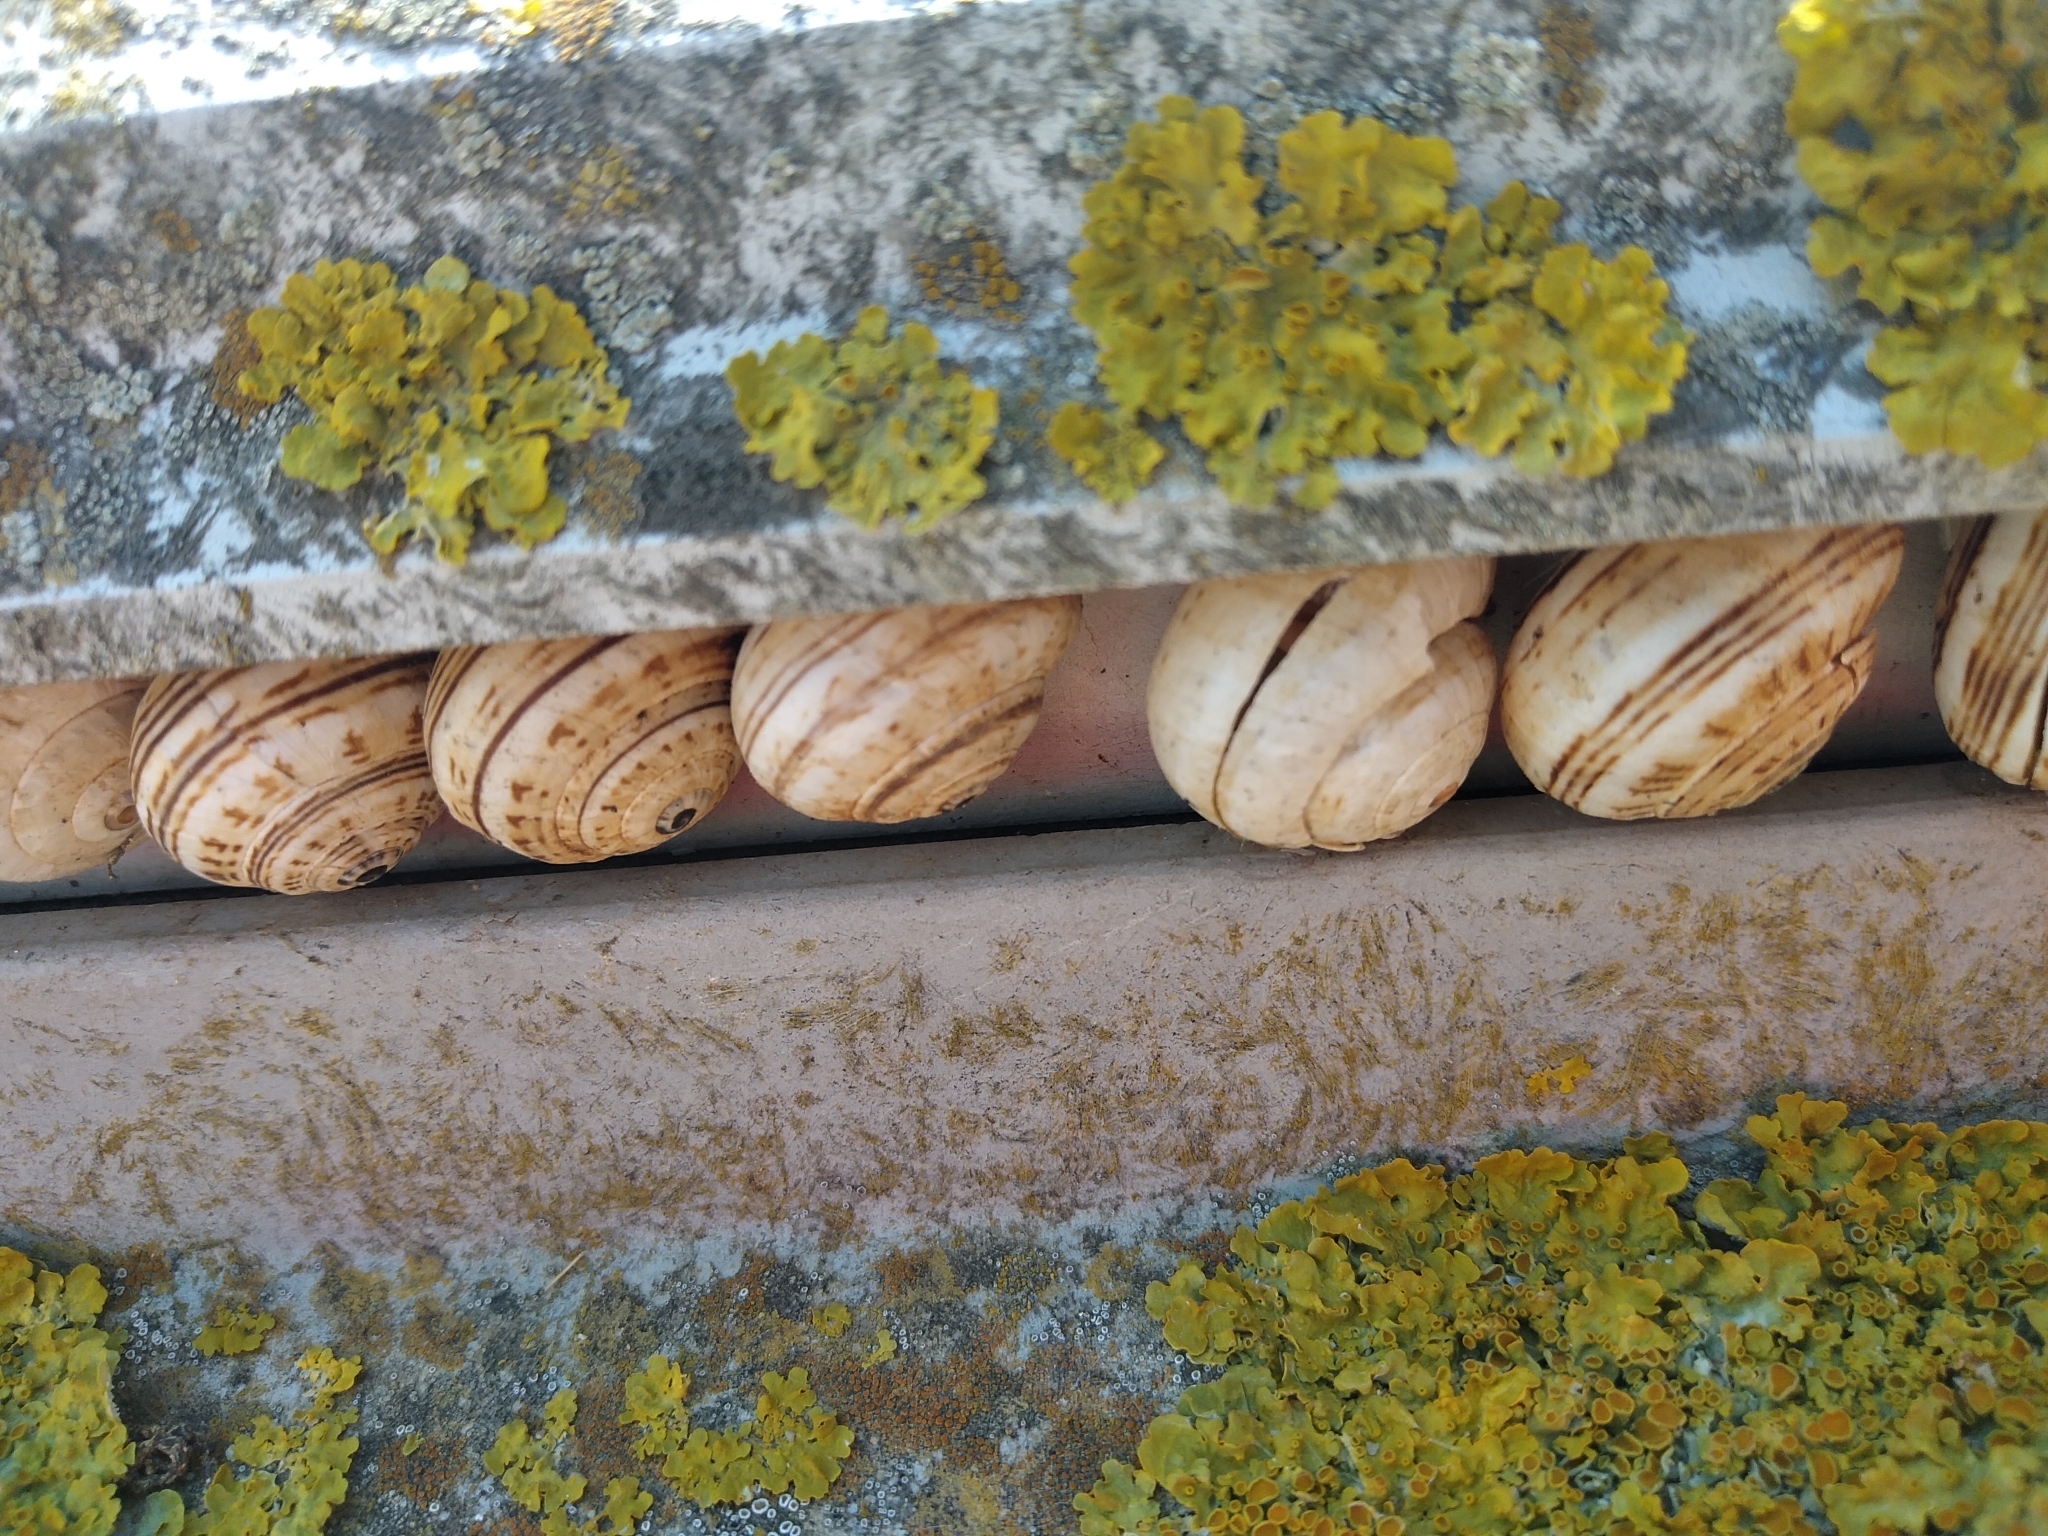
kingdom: Animalia
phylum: Mollusca
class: Gastropoda
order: Stylommatophora
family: Helicidae
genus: Theba
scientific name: Theba pisana
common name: White snail
